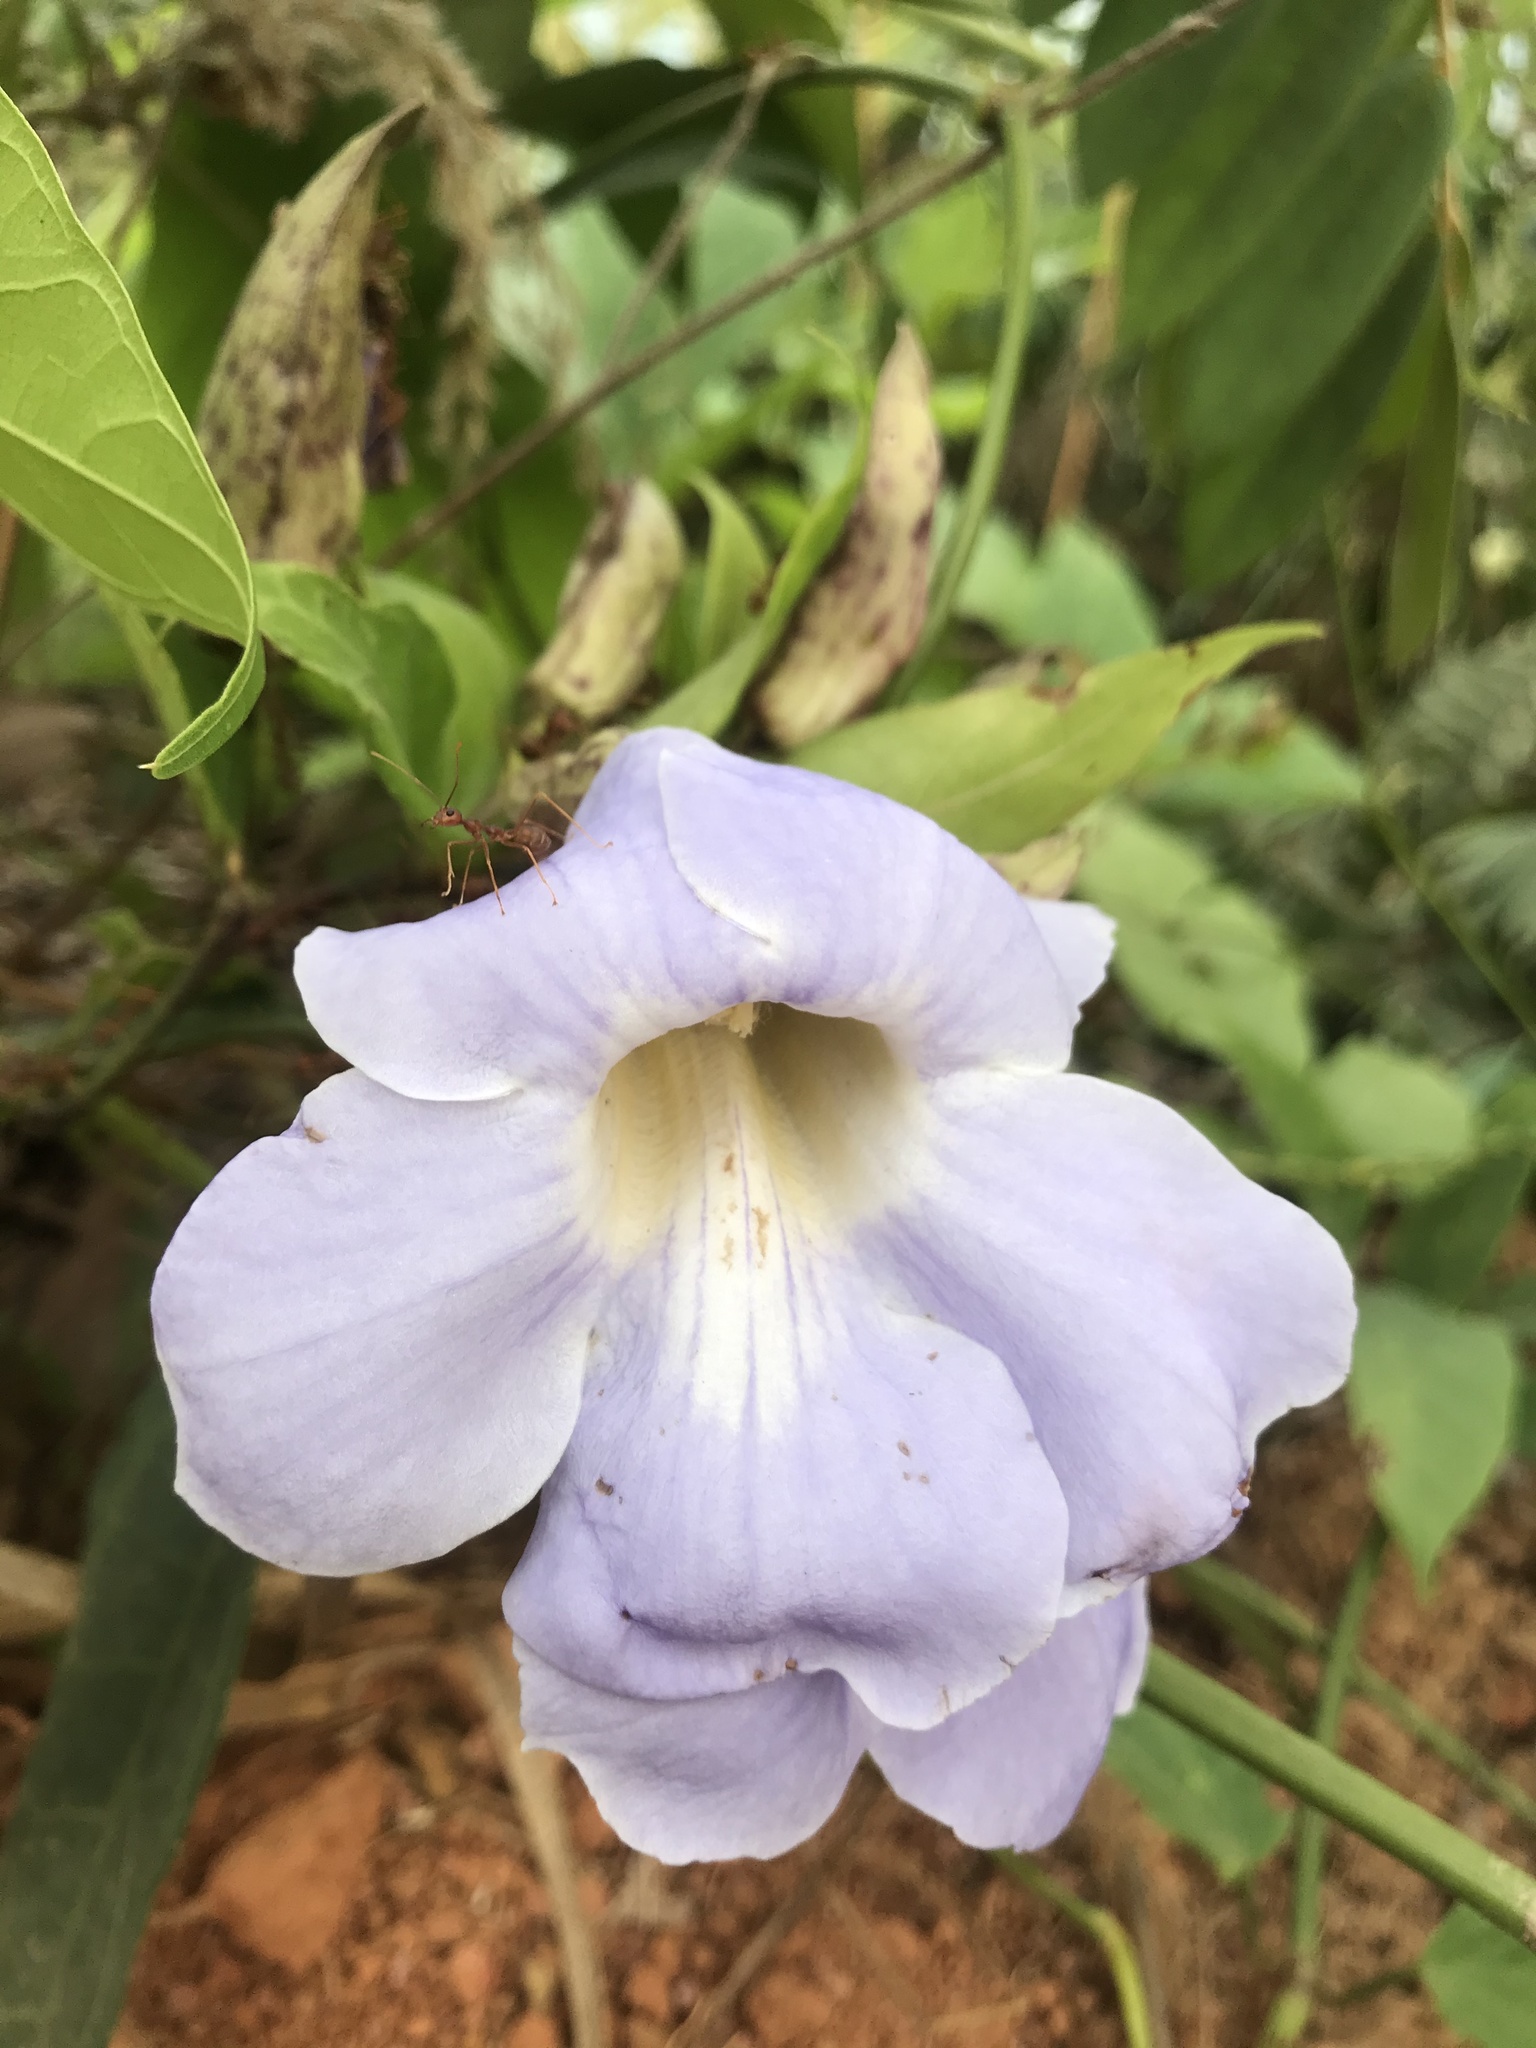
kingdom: Plantae
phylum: Tracheophyta
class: Magnoliopsida
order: Lamiales
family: Acanthaceae
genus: Thunbergia
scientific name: Thunbergia grandiflora
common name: Bengal trumpet
